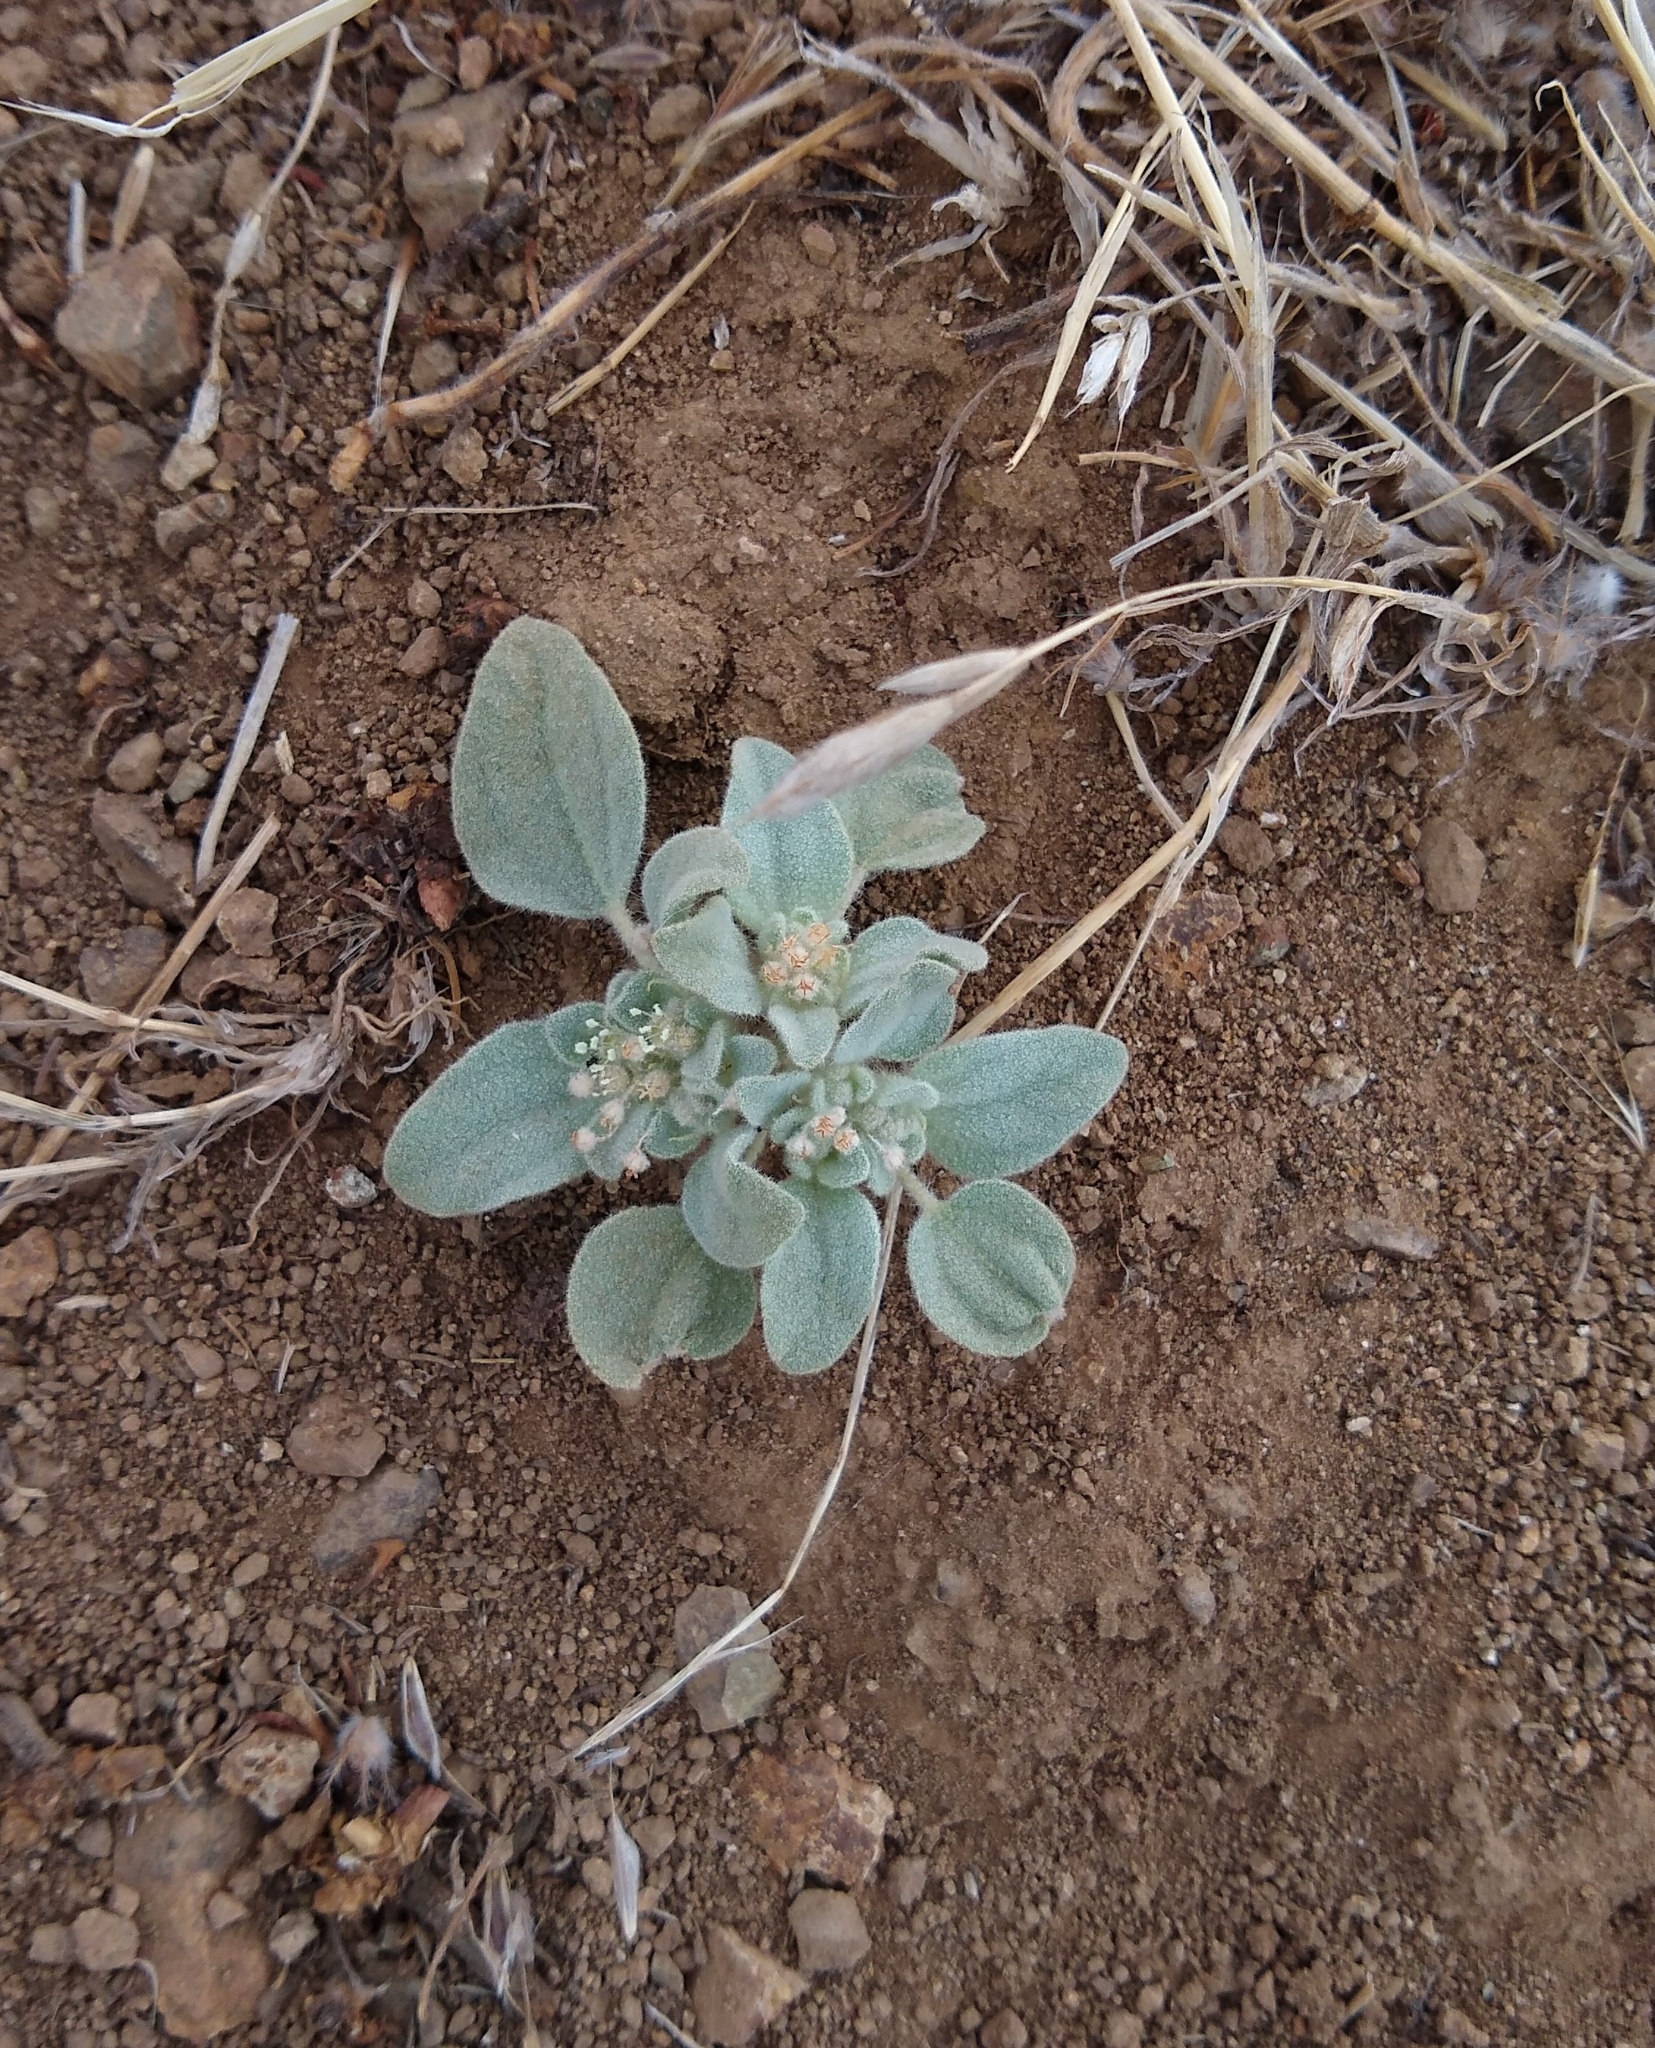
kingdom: Plantae
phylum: Tracheophyta
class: Magnoliopsida
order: Malpighiales
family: Euphorbiaceae
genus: Croton
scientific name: Croton setiger
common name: Dove weed
